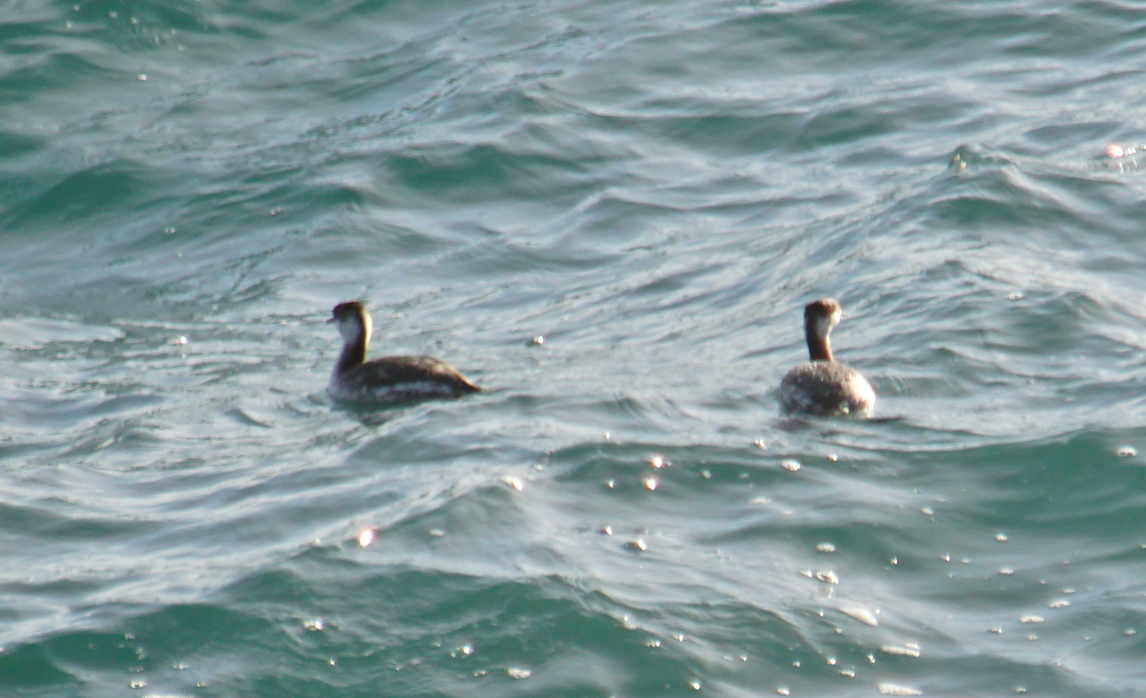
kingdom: Animalia
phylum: Chordata
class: Aves
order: Podicipediformes
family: Podicipedidae
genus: Podiceps
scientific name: Podiceps auritus
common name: Horned grebe
